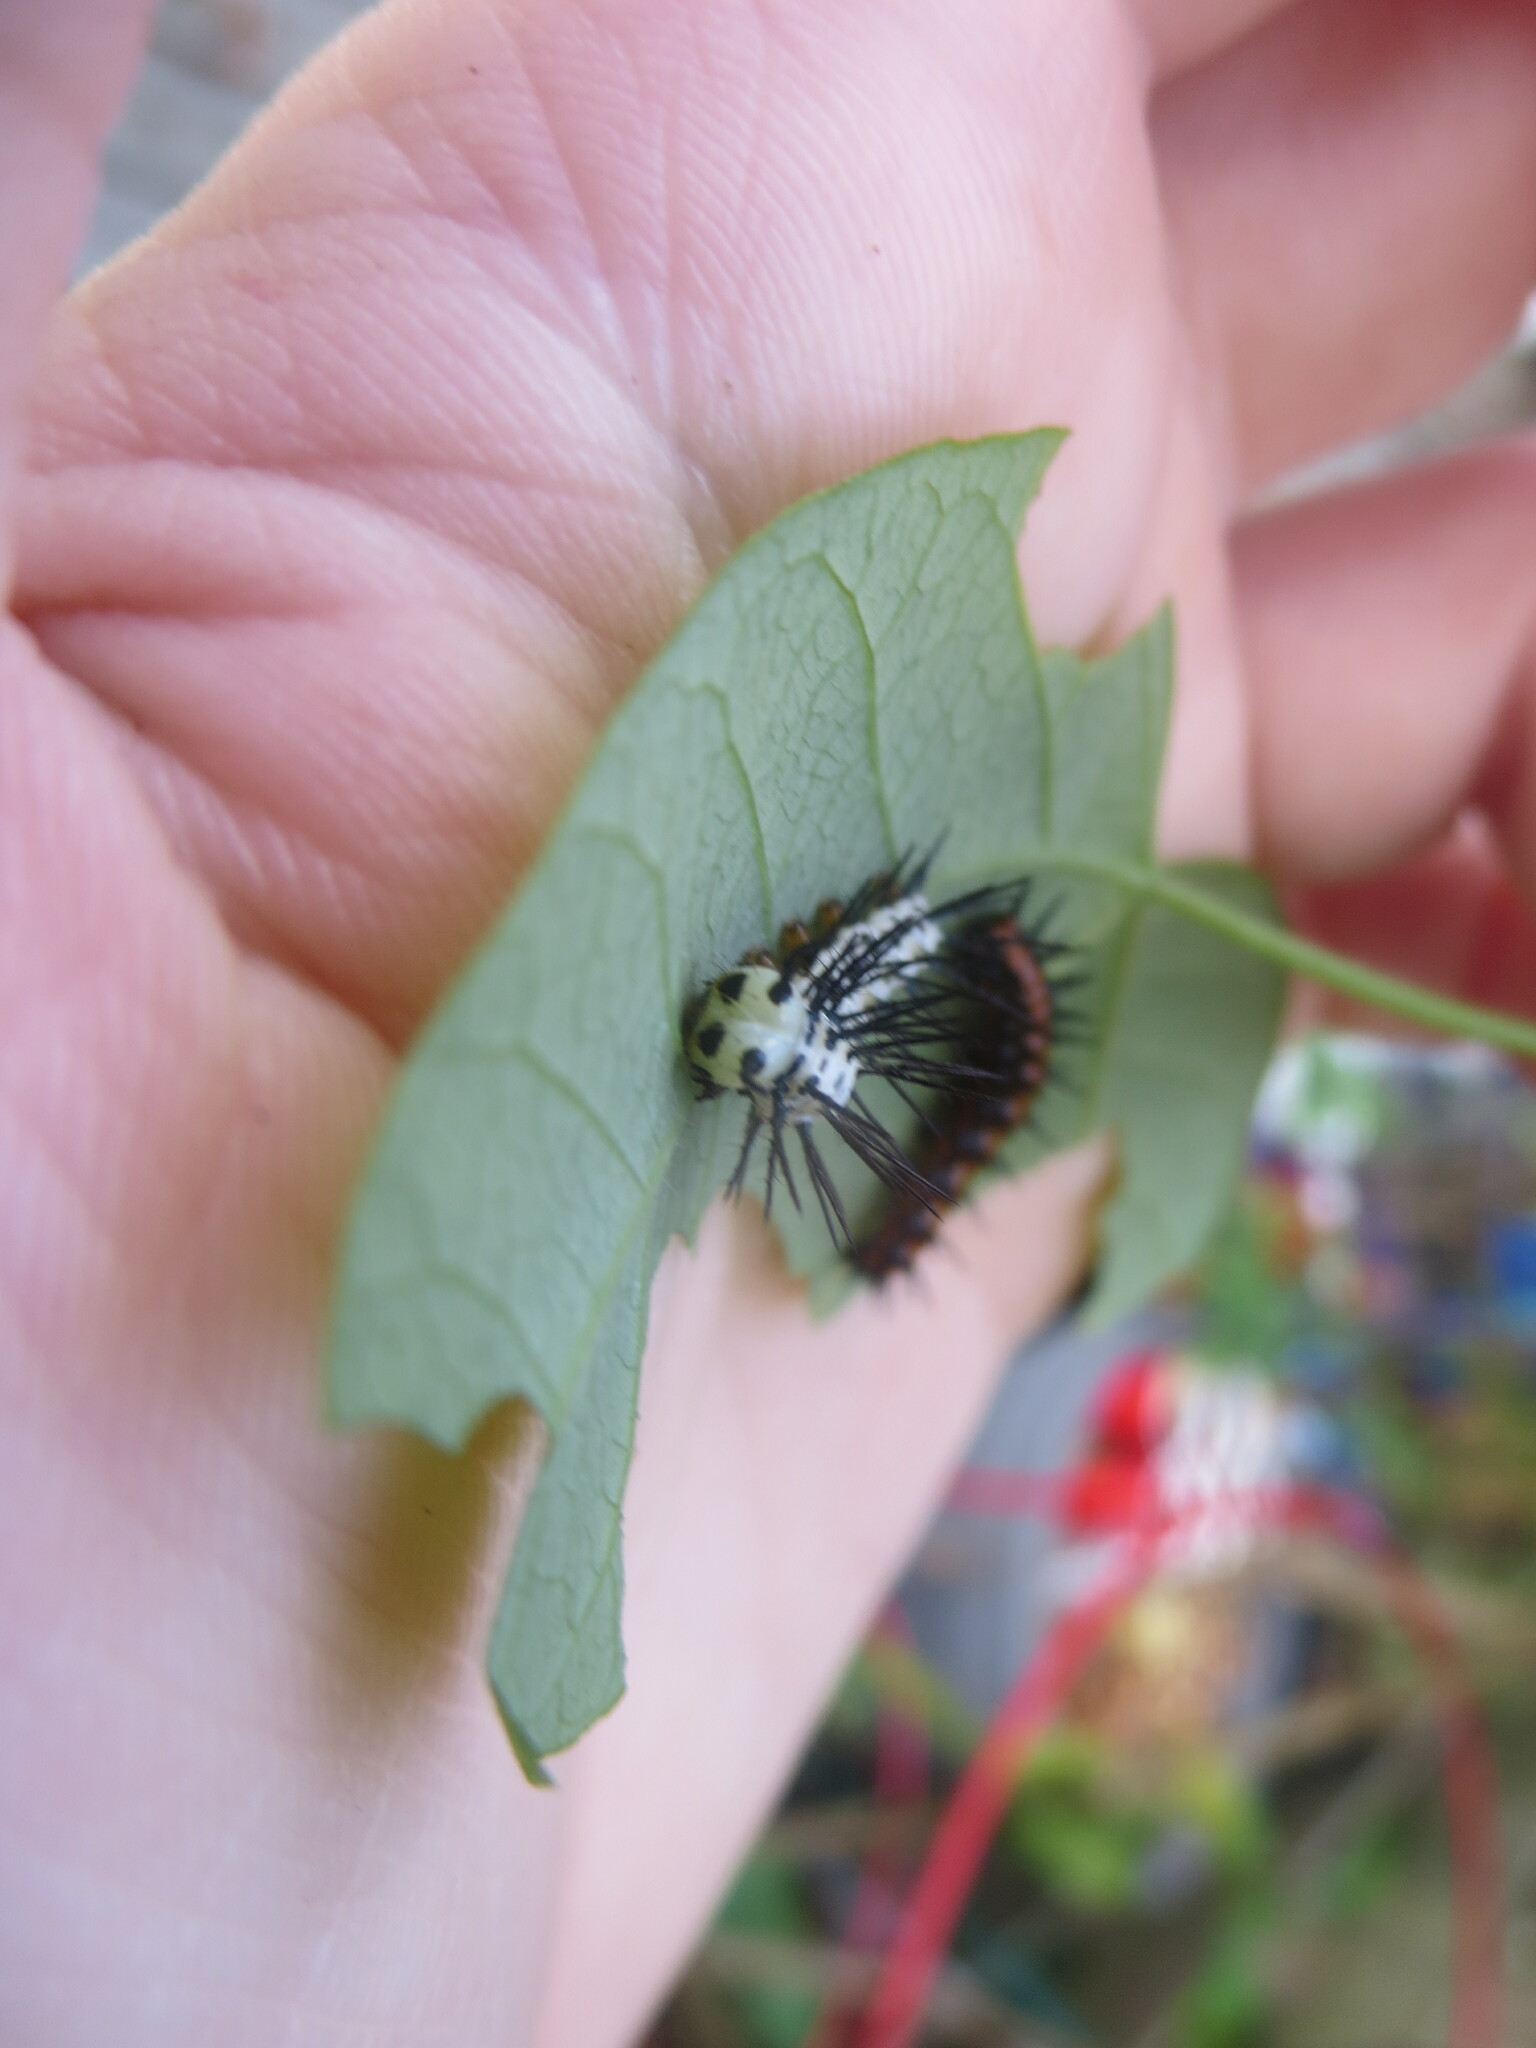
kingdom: Animalia
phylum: Arthropoda
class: Insecta
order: Lepidoptera
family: Nymphalidae
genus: Dione
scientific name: Dione vanillae
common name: Gulf fritillary
